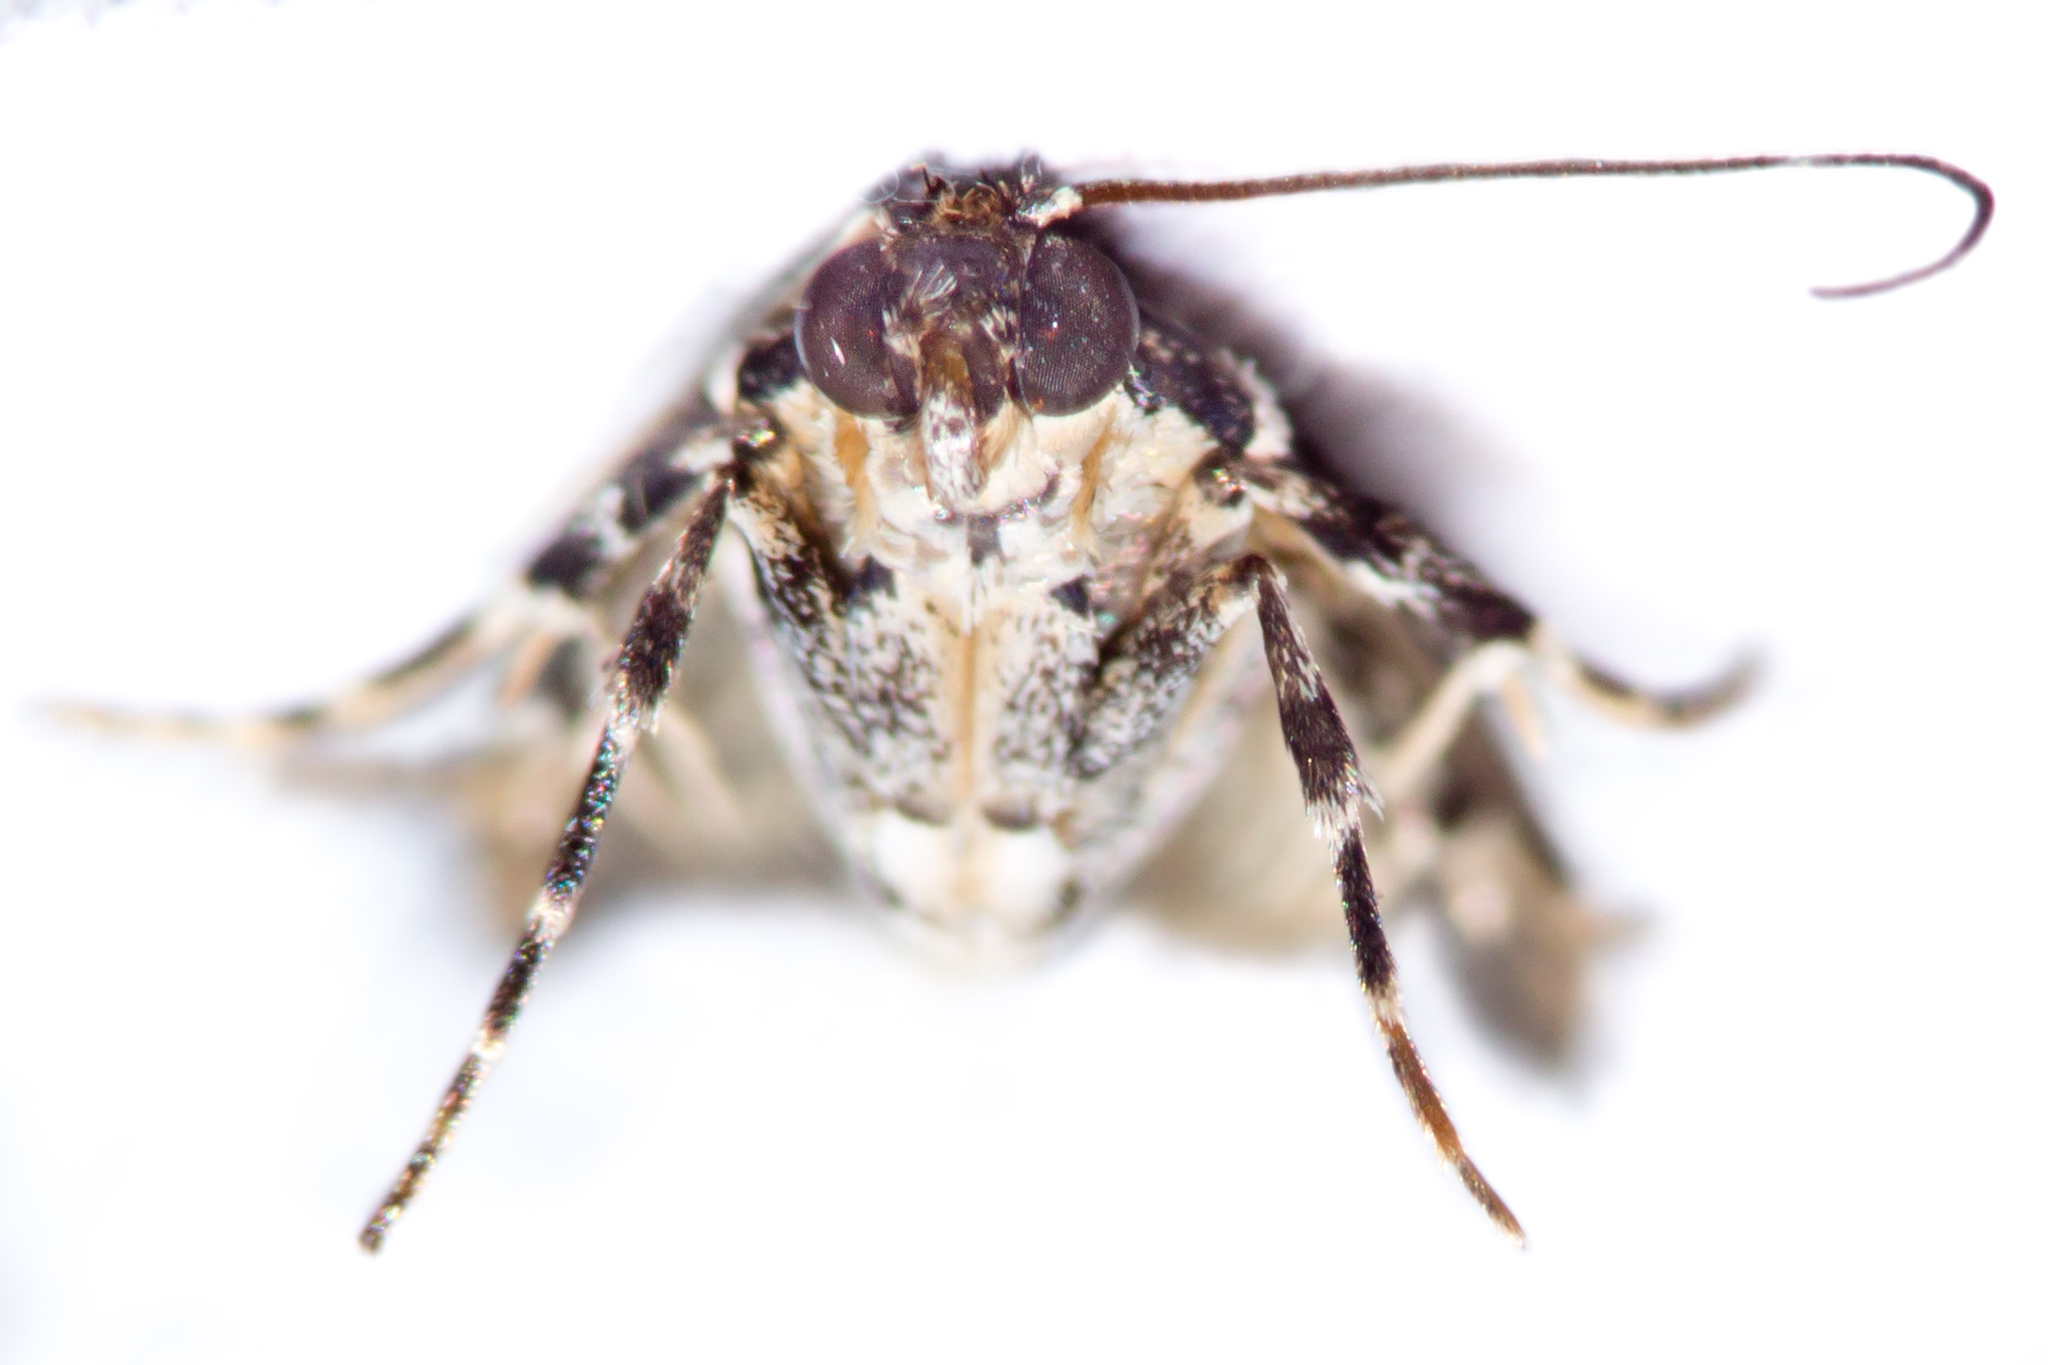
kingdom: Animalia
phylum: Arthropoda
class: Insecta
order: Lepidoptera
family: Crambidae
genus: Eudonia
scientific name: Eudonia diphtheralis
